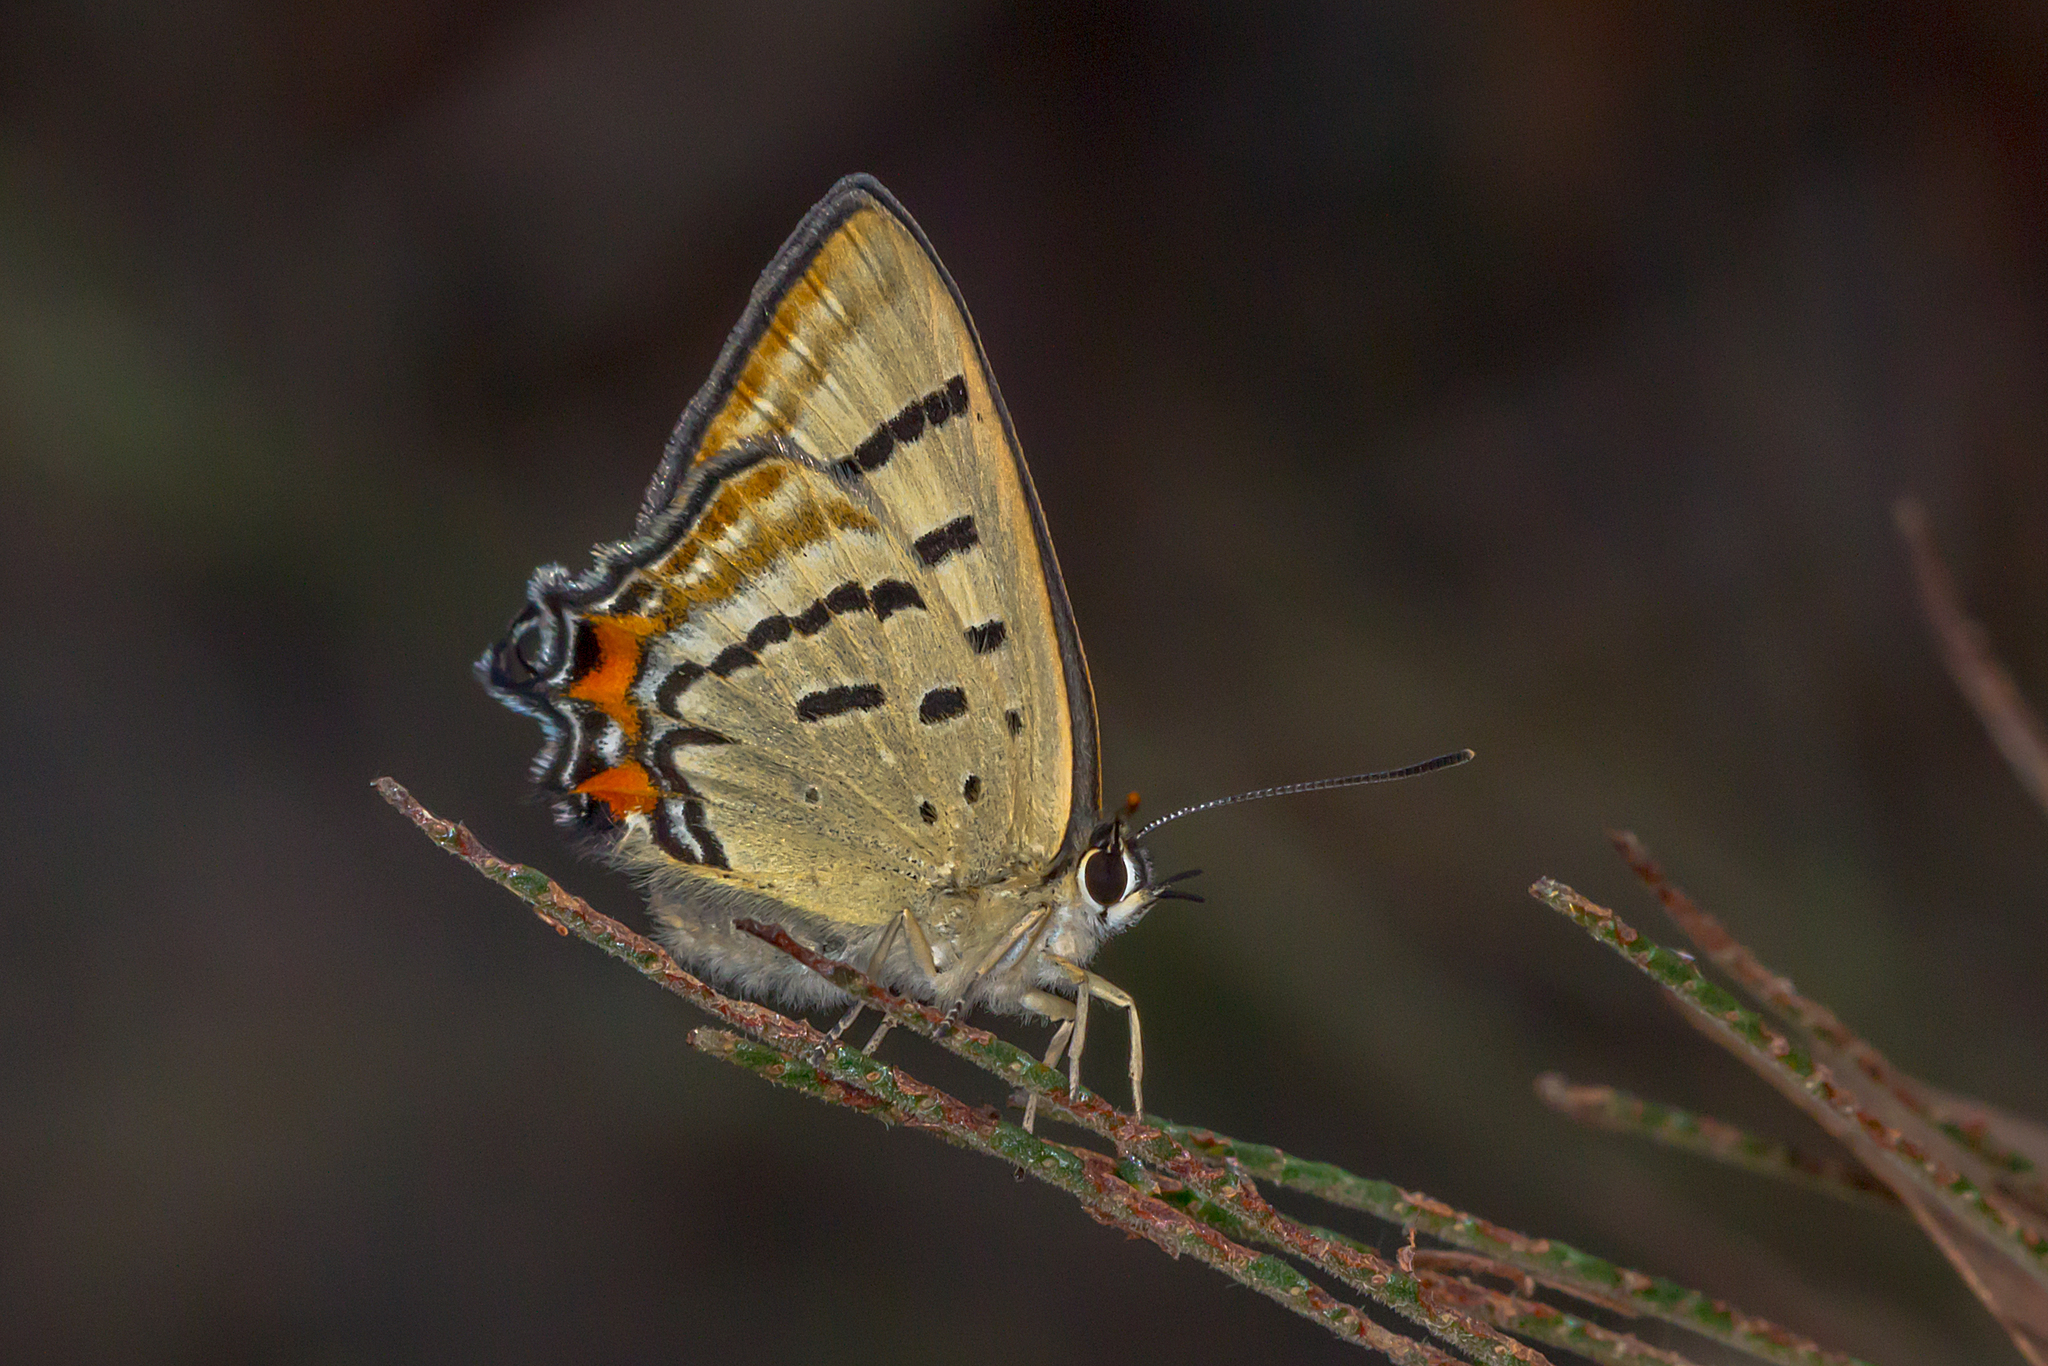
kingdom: Animalia
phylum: Arthropoda
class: Insecta
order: Lepidoptera
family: Lycaenidae
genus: Jalmenus
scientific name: Jalmenus evagoras
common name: Common imperial blue
